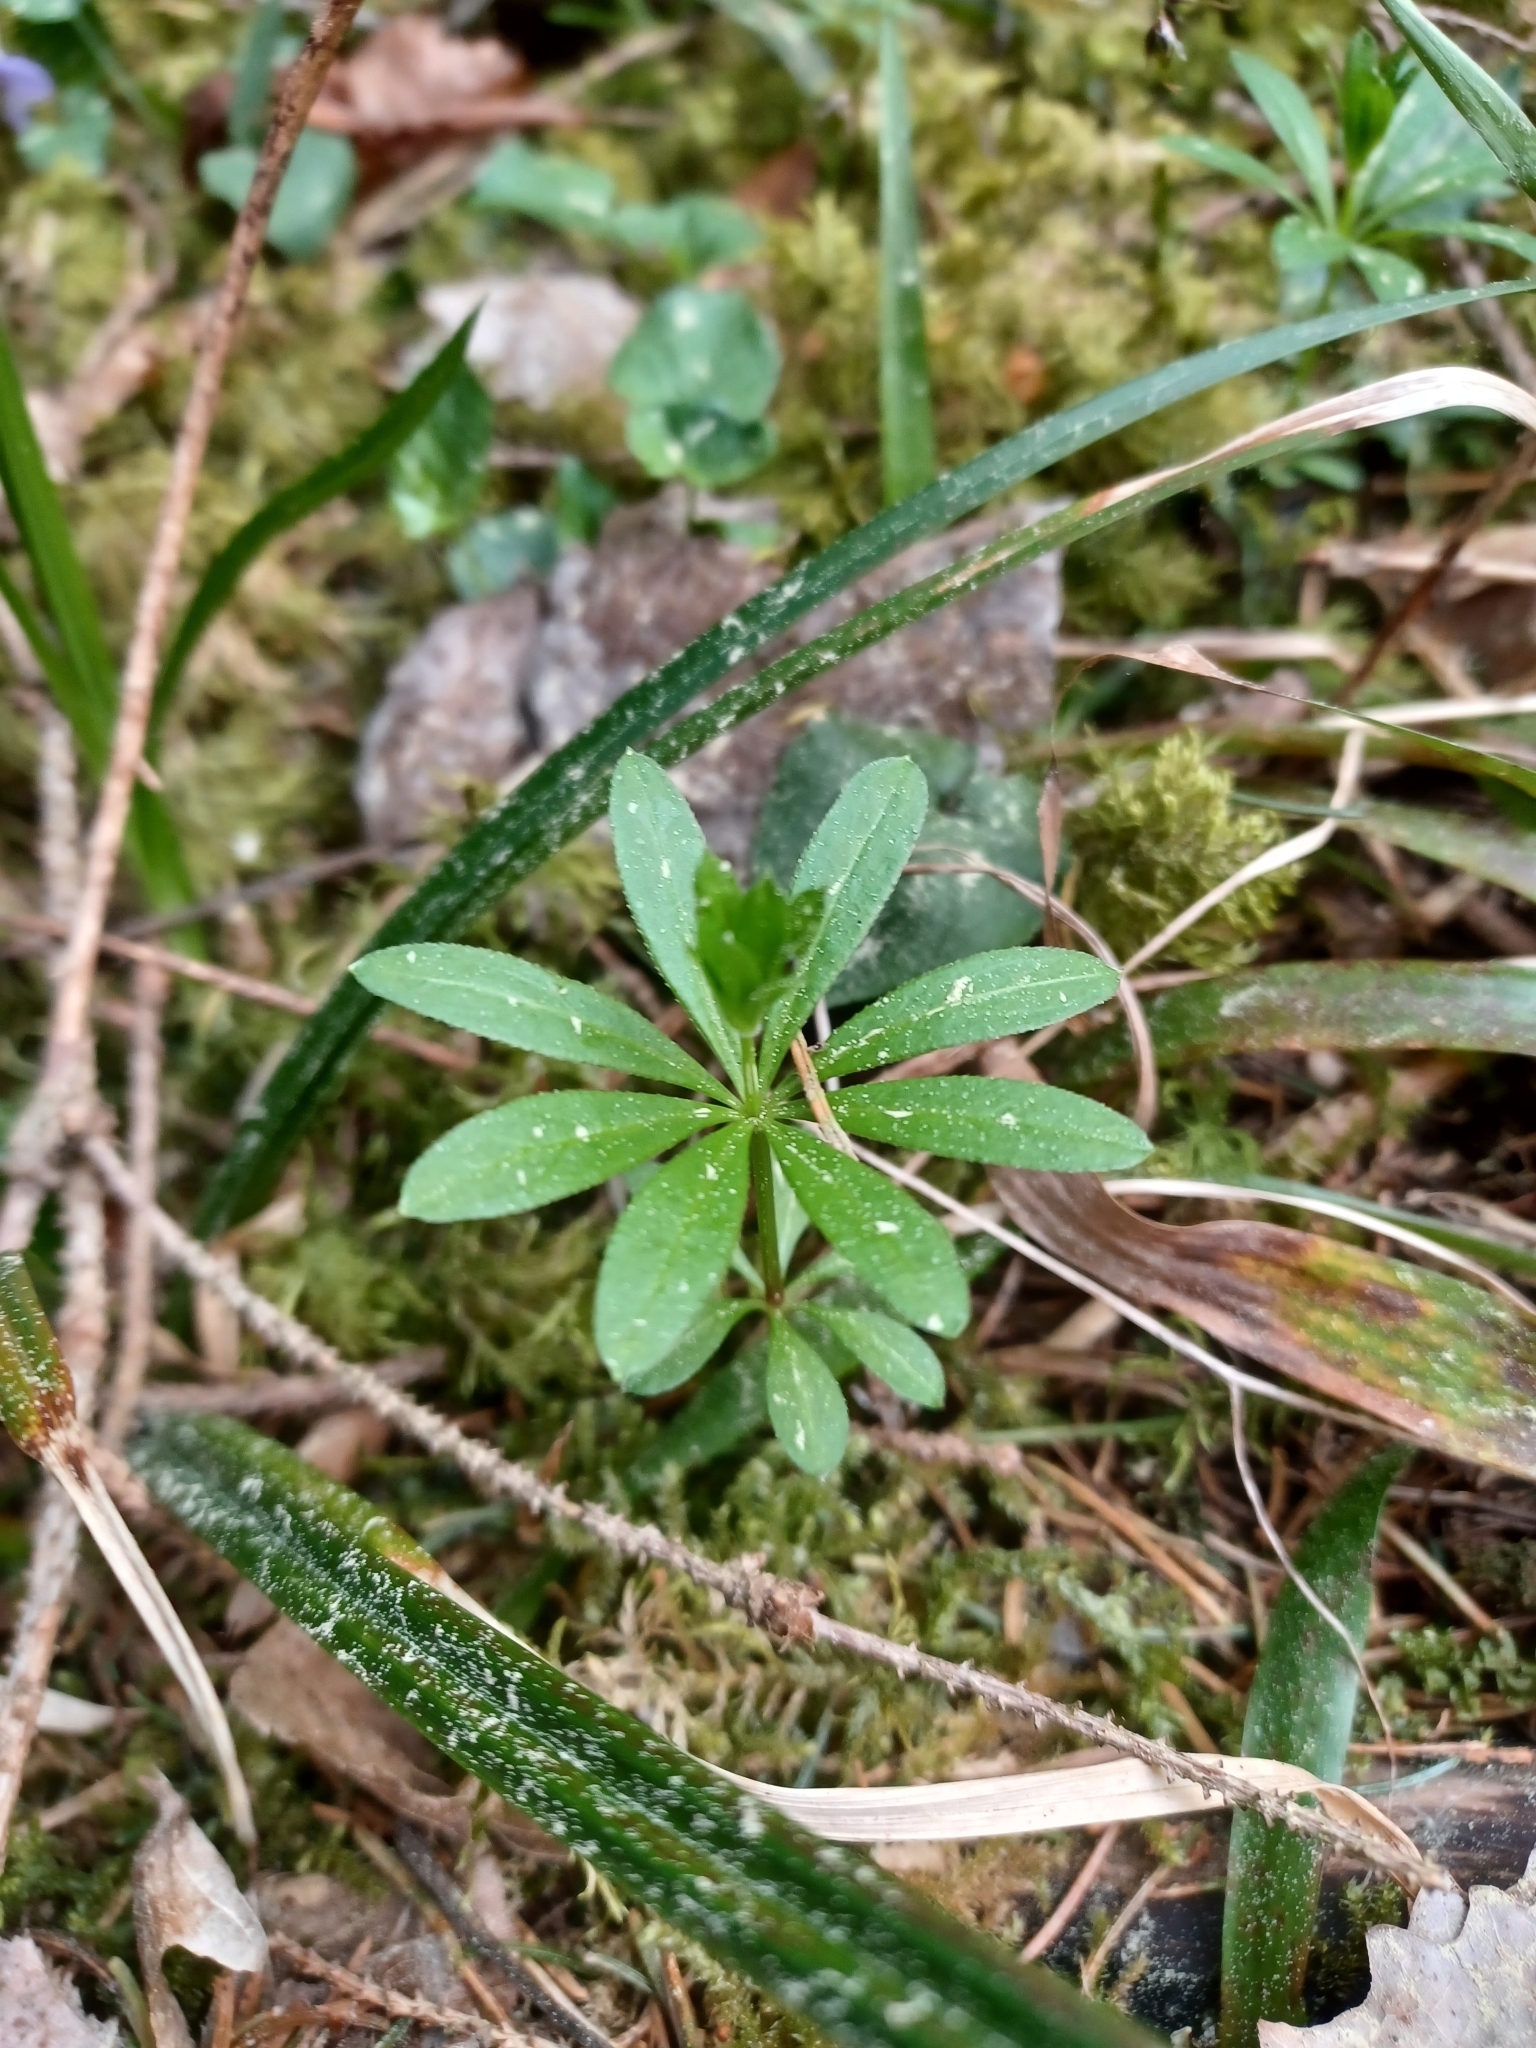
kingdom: Plantae
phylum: Tracheophyta
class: Magnoliopsida
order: Gentianales
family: Rubiaceae
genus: Galium
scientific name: Galium odoratum
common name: Sweet woodruff
